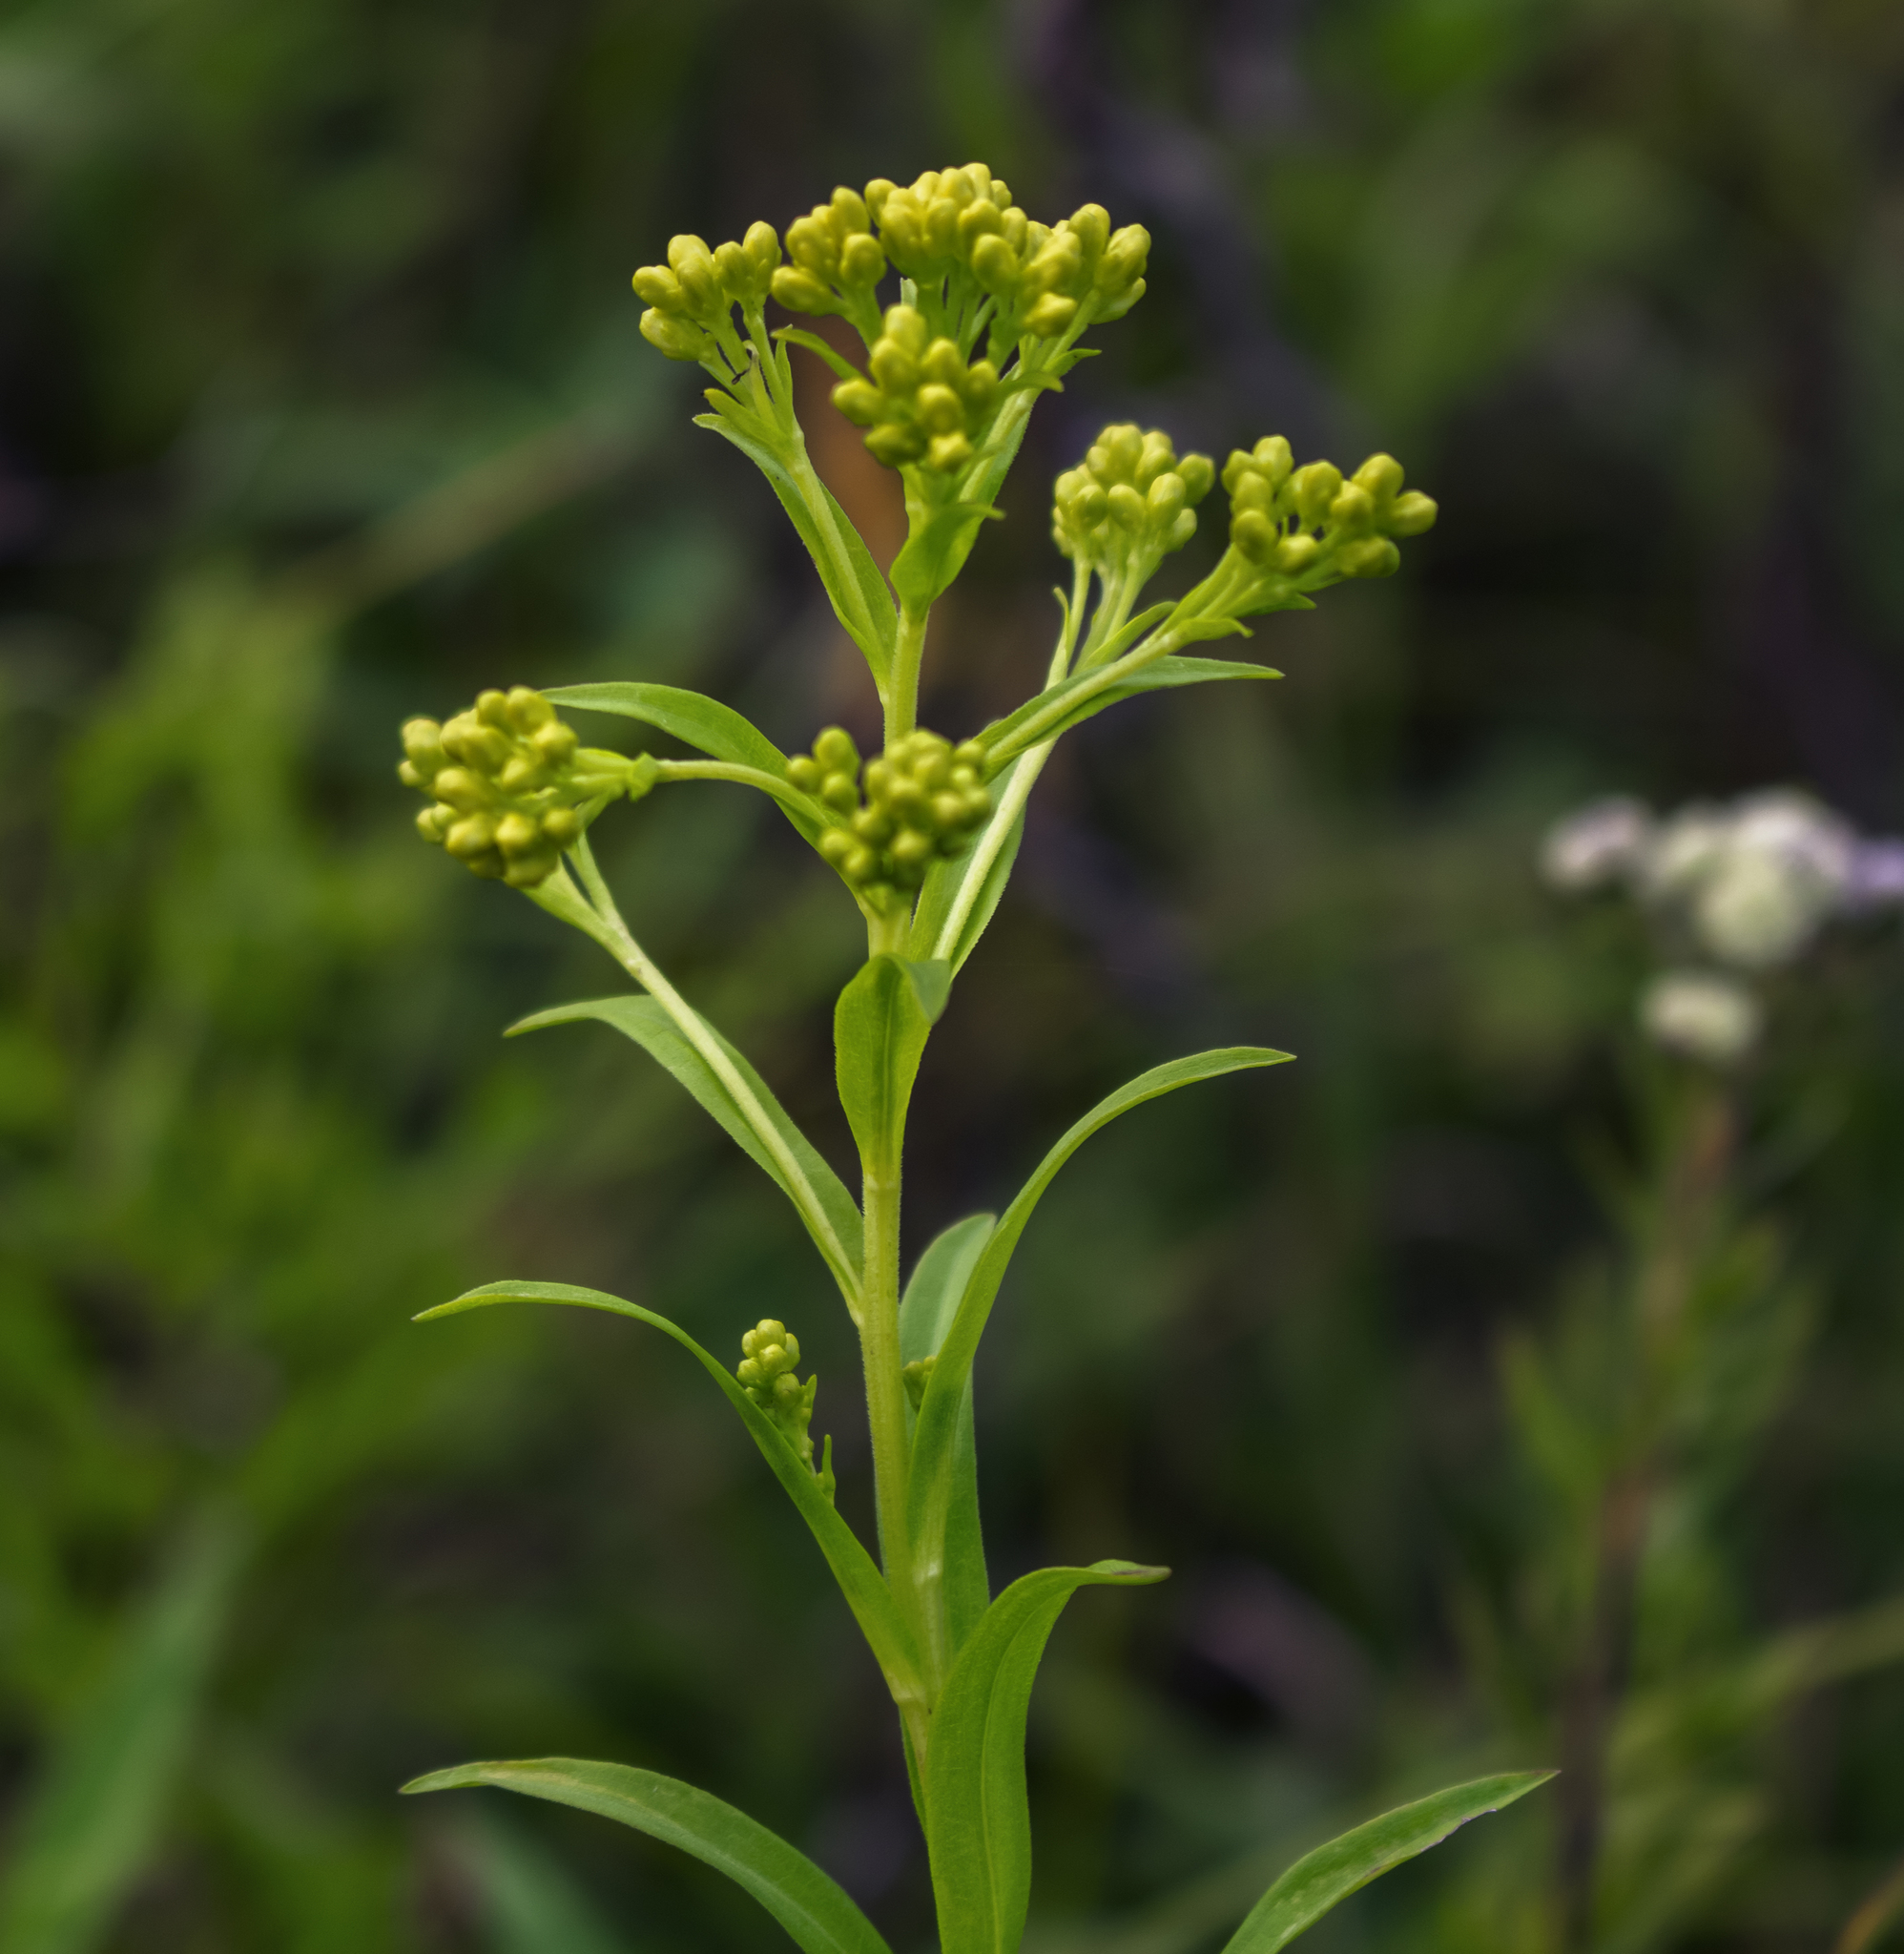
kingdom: Plantae
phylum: Tracheophyta
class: Magnoliopsida
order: Asterales
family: Asteraceae
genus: Solidago
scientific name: Solidago riddellii
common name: Riddell's goldenrod
